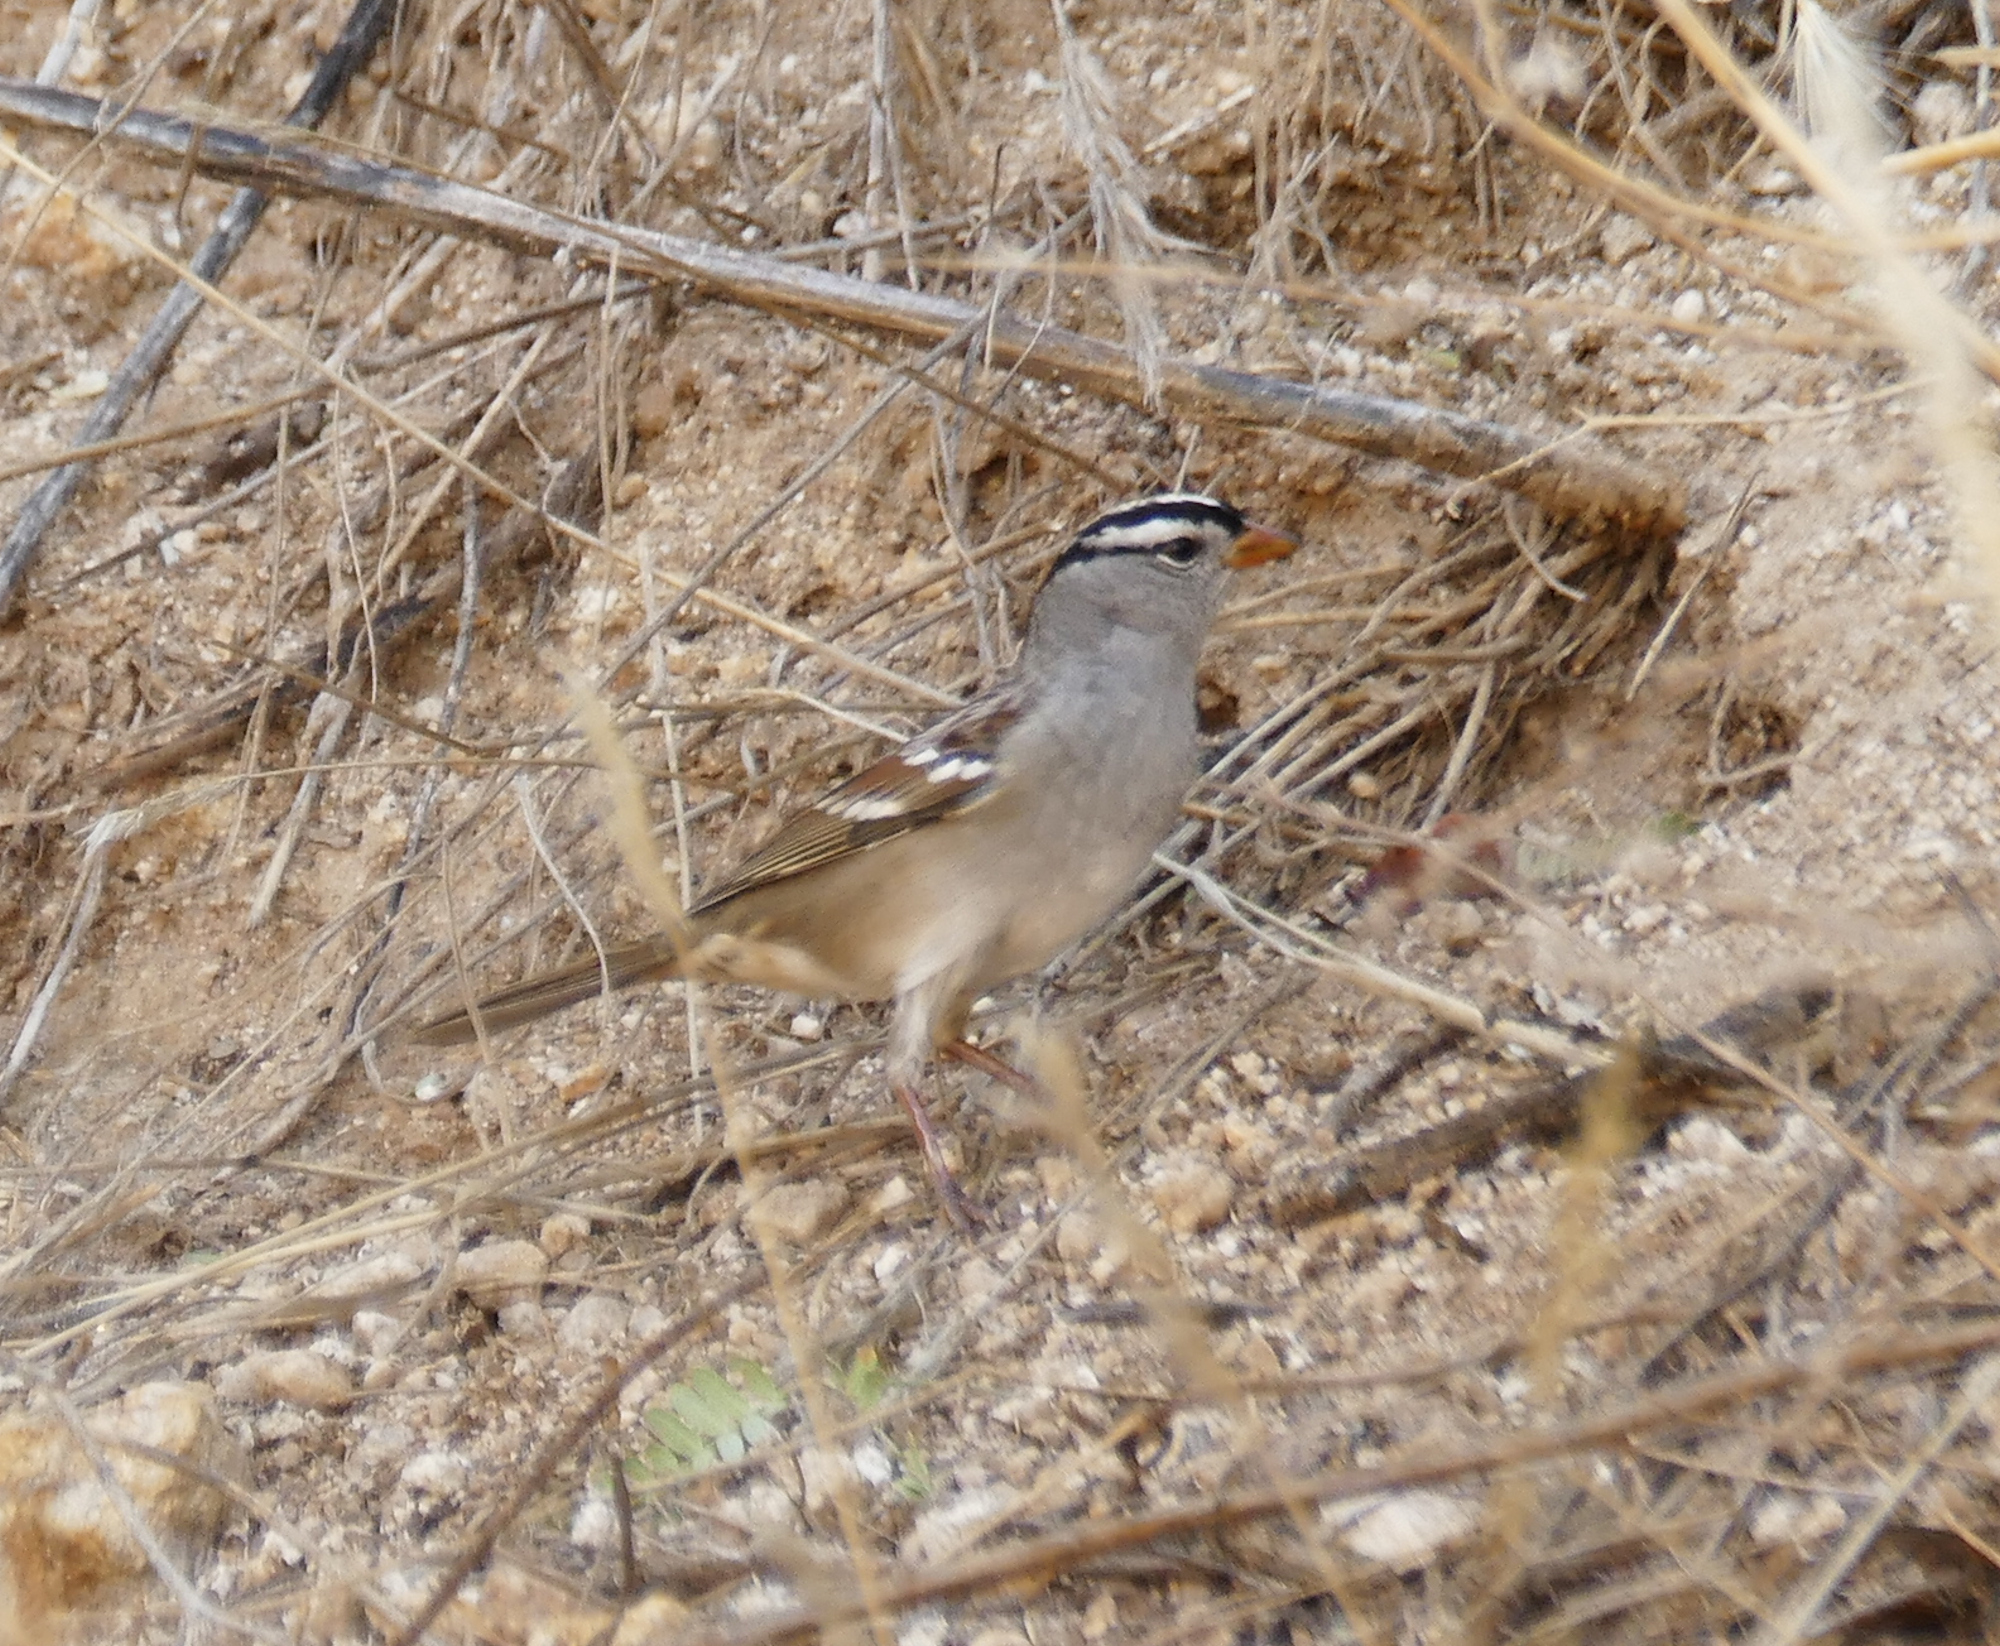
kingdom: Animalia
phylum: Chordata
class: Aves
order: Passeriformes
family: Passerellidae
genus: Zonotrichia
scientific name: Zonotrichia leucophrys
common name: White-crowned sparrow
